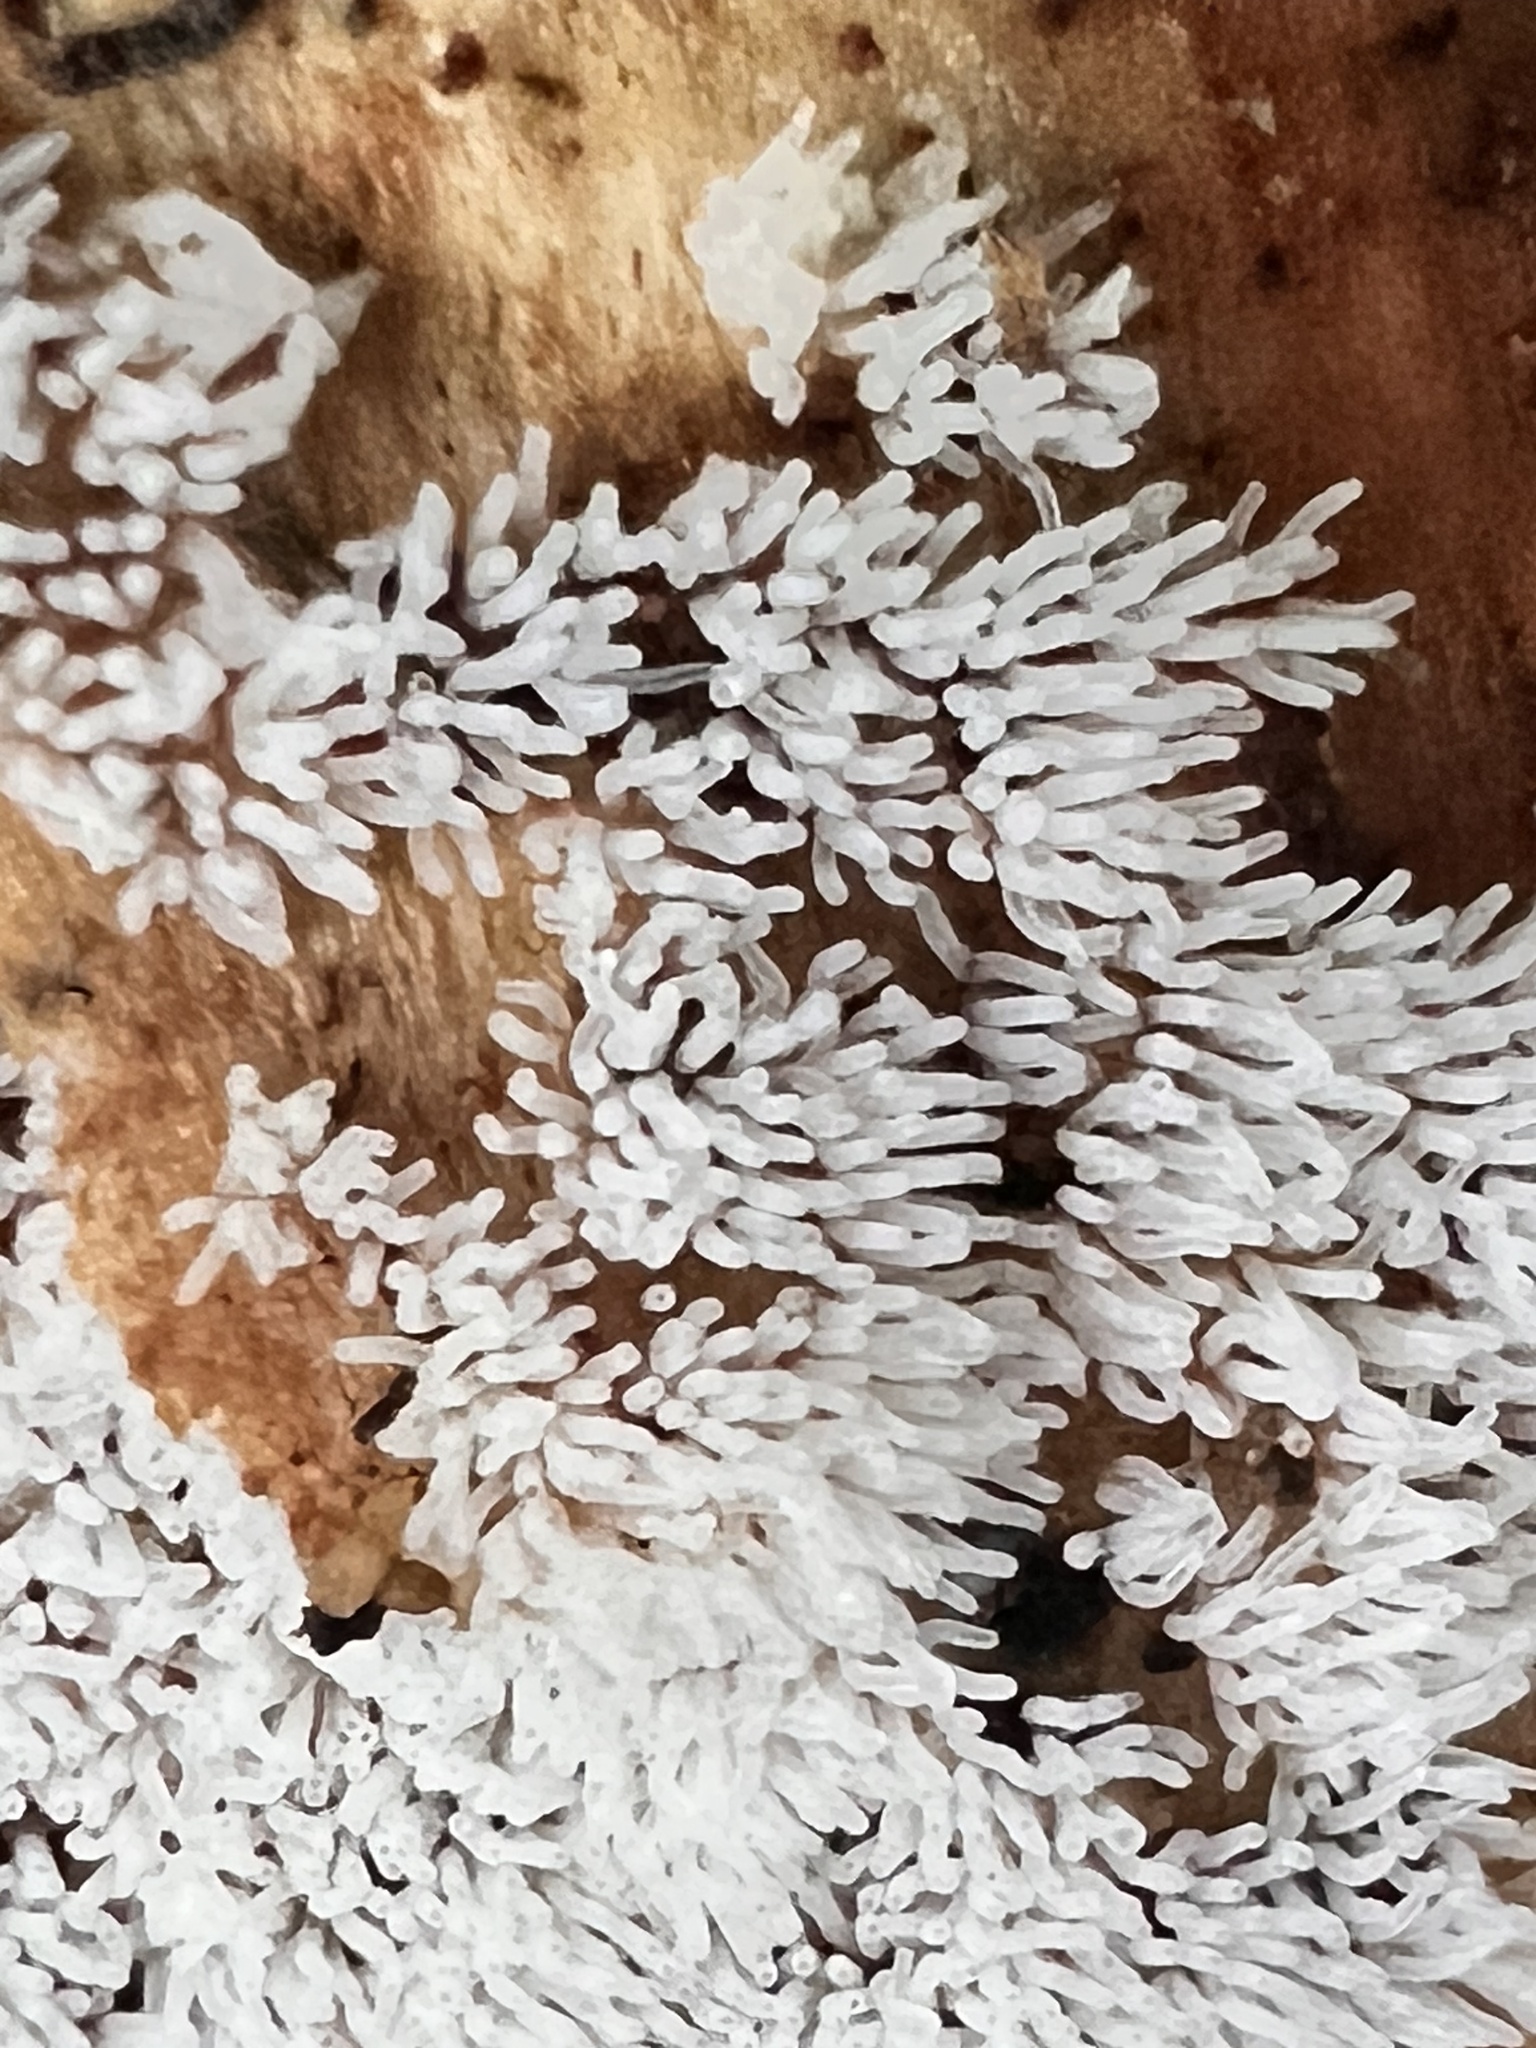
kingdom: Protozoa
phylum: Mycetozoa
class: Protosteliomycetes
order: Ceratiomyxales
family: Ceratiomyxaceae
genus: Ceratiomyxa
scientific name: Ceratiomyxa fruticulosa
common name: Honeycomb coral slime mold
